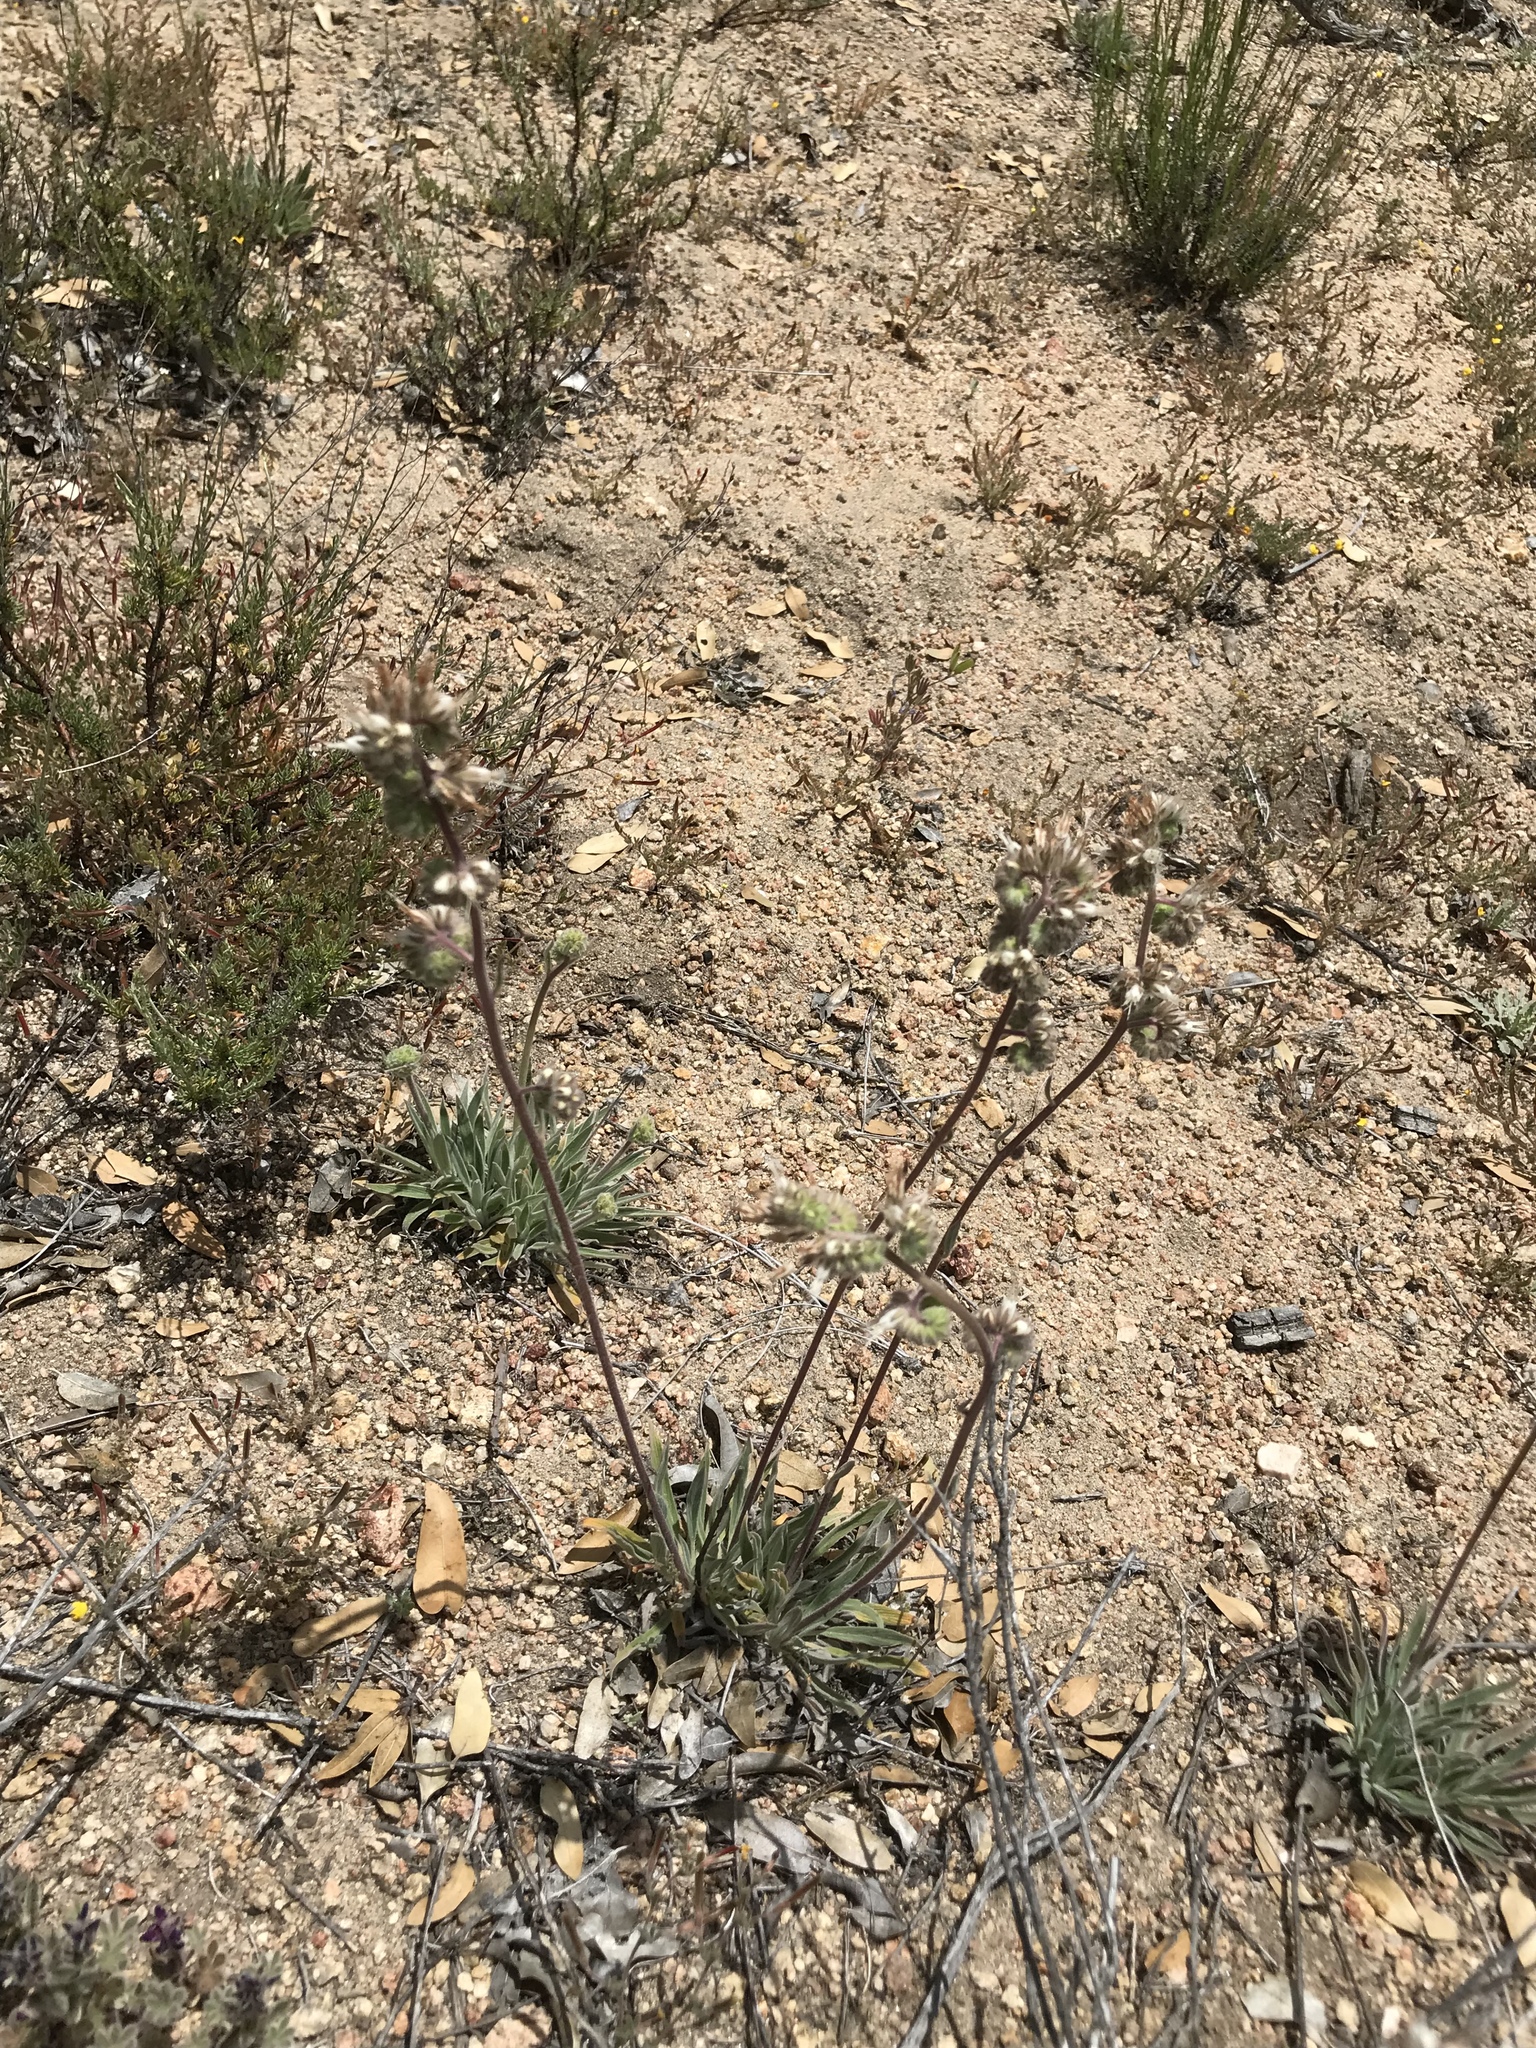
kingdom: Plantae
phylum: Tracheophyta
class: Magnoliopsida
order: Boraginales
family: Hydrophyllaceae
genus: Phacelia
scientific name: Phacelia imbricata
